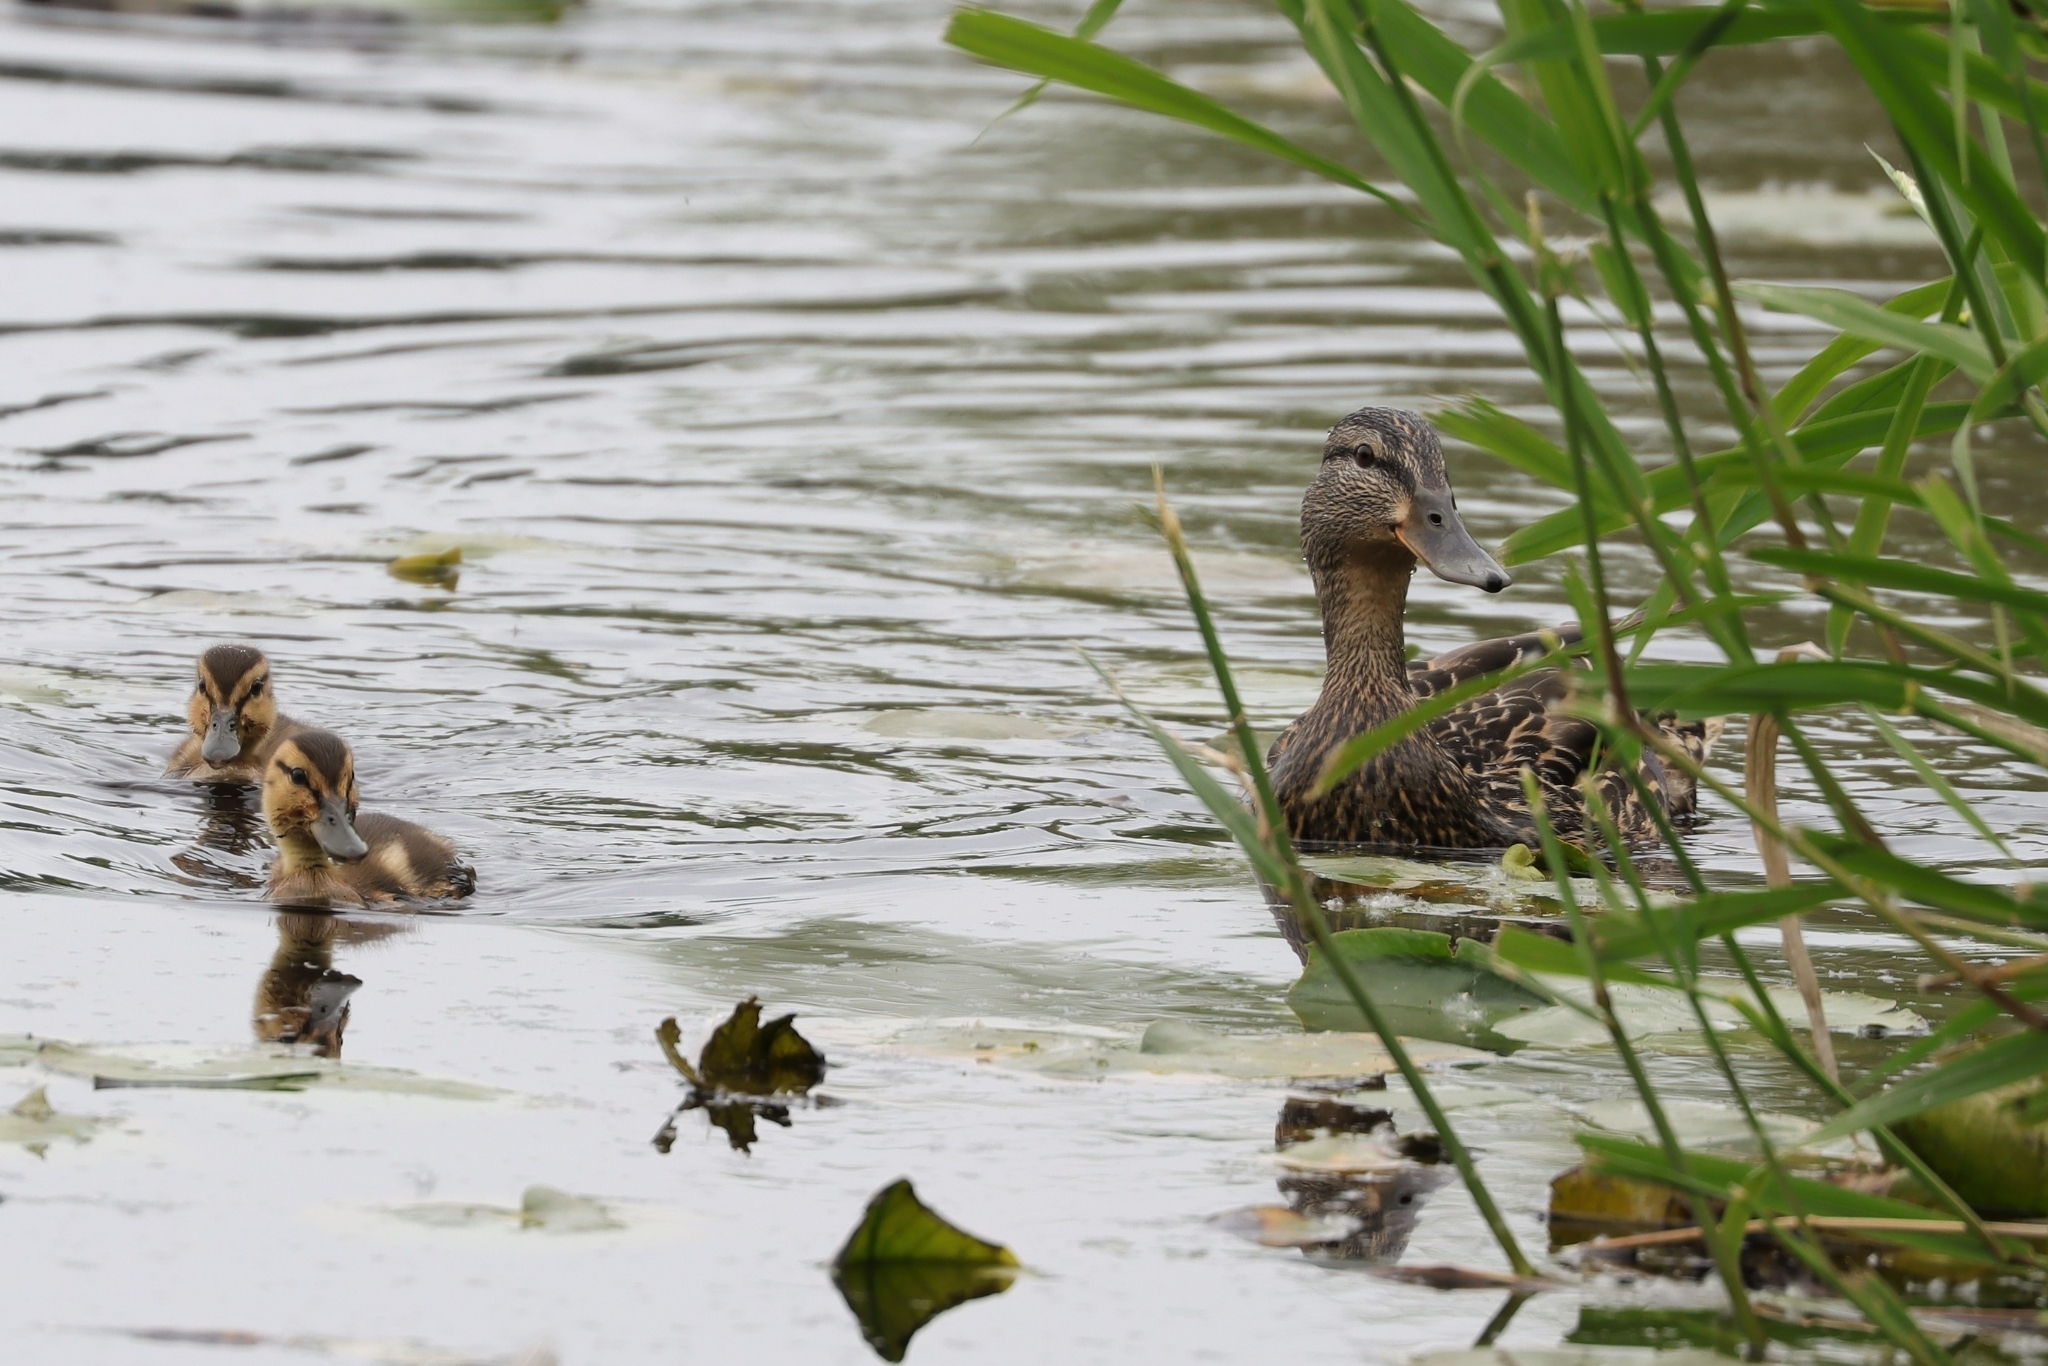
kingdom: Animalia
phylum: Chordata
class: Aves
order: Anseriformes
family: Anatidae
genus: Anas
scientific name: Anas platyrhynchos
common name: Mallard
